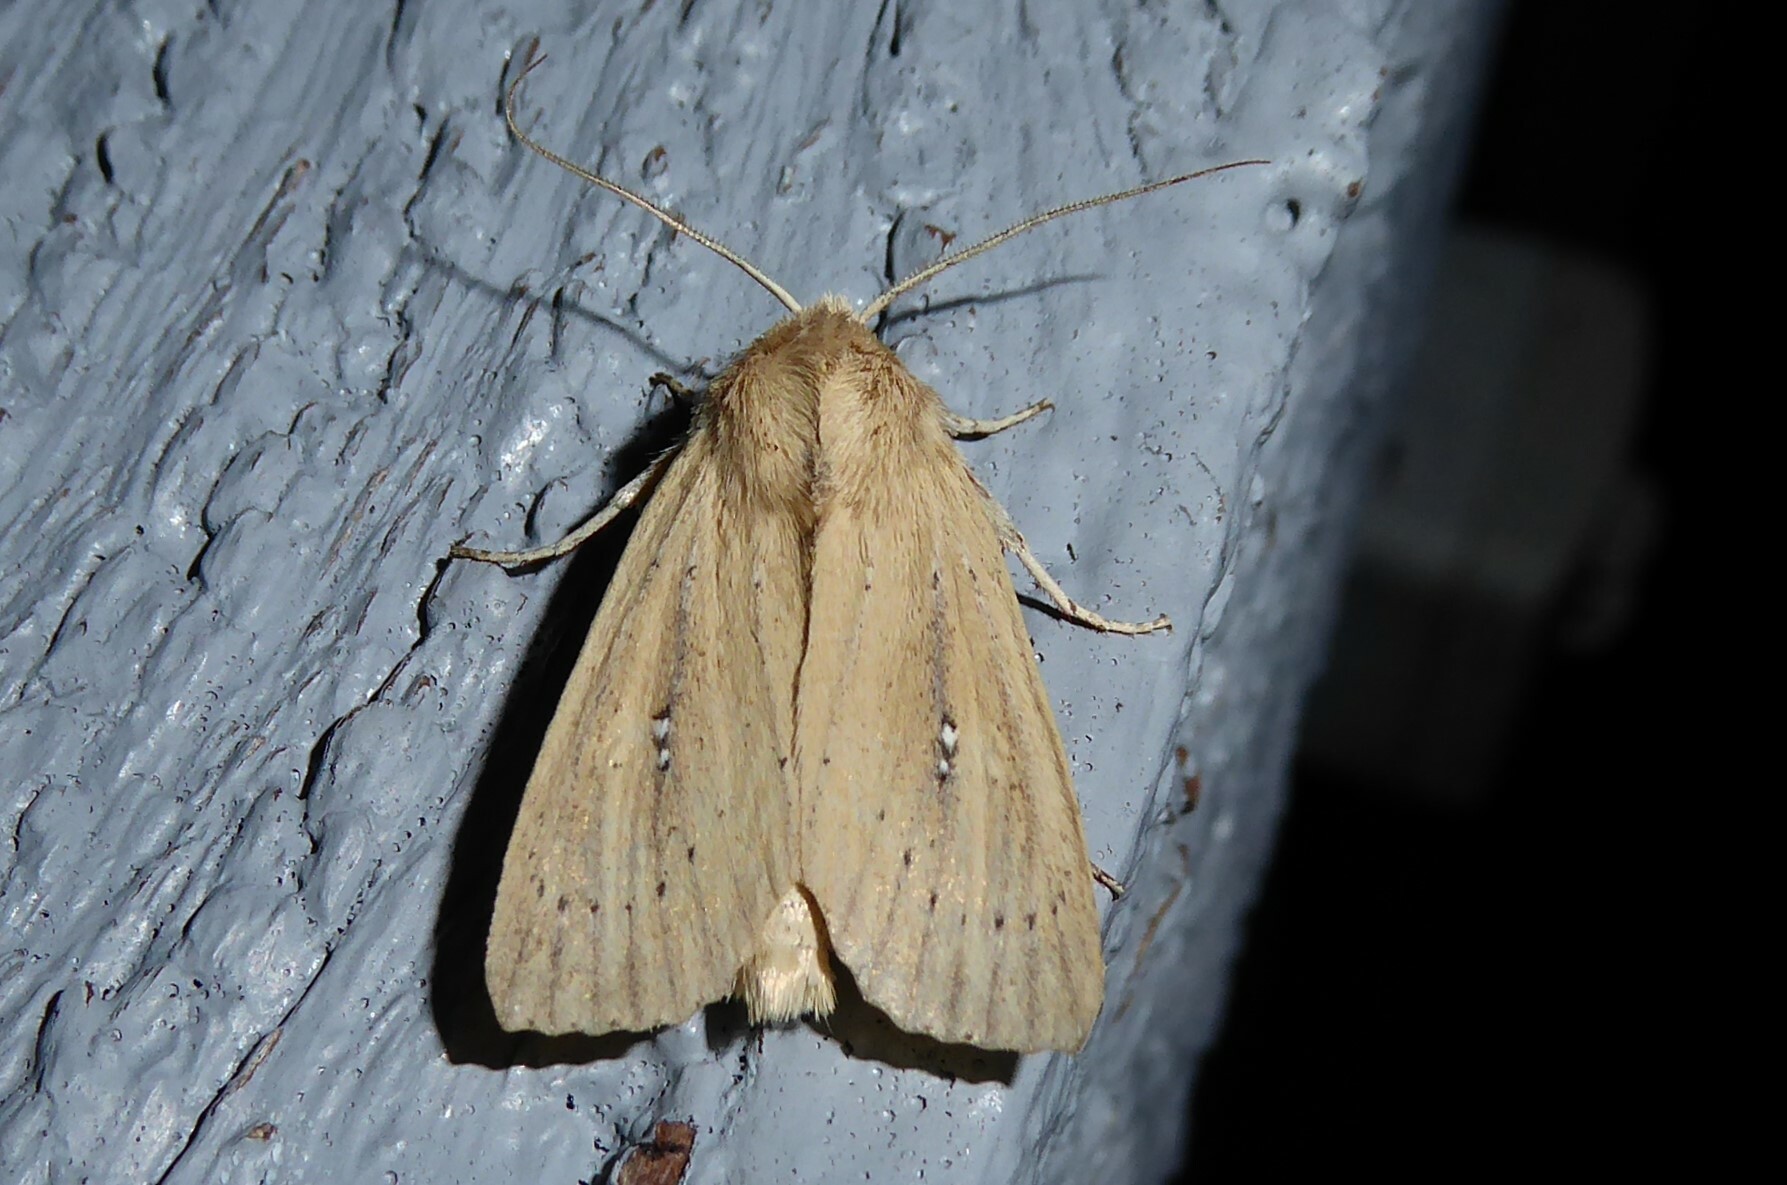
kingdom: Animalia
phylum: Arthropoda
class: Insecta
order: Lepidoptera
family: Noctuidae
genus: Ichneutica
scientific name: Ichneutica
